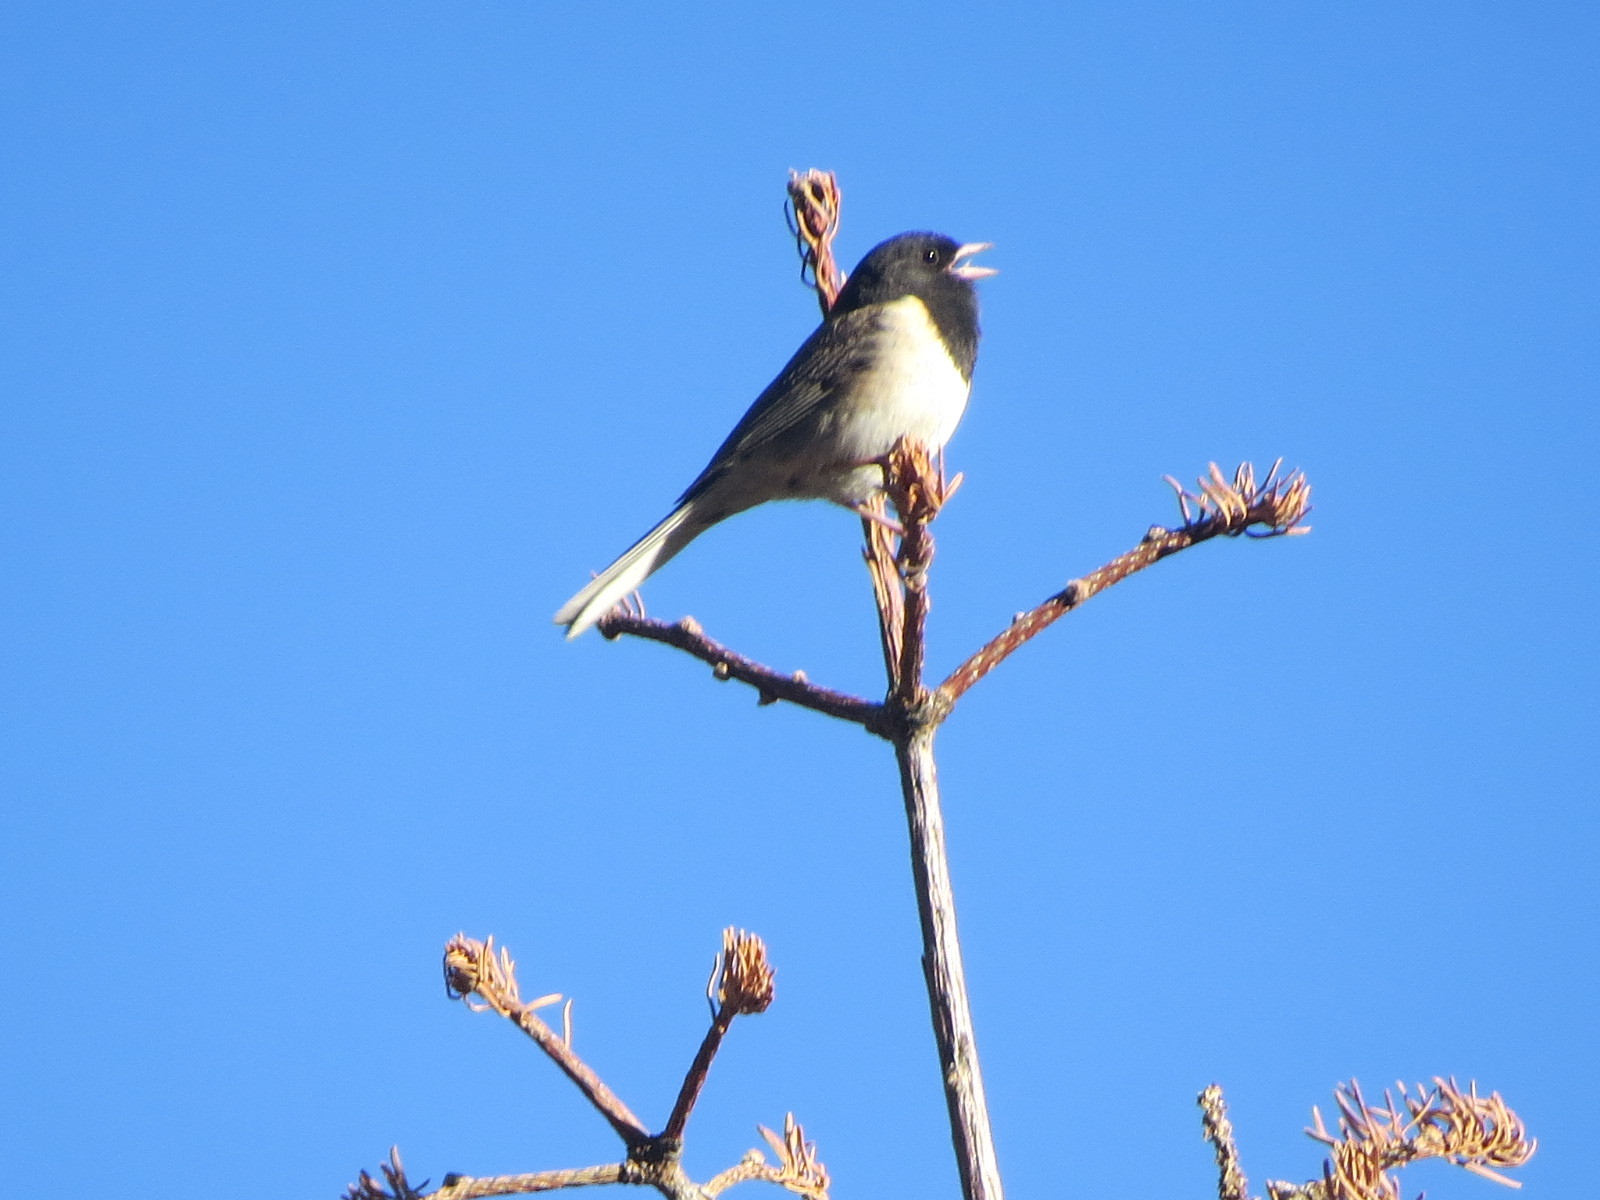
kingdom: Animalia
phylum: Chordata
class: Aves
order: Passeriformes
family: Passerellidae
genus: Junco
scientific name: Junco hyemalis
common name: Dark-eyed junco
